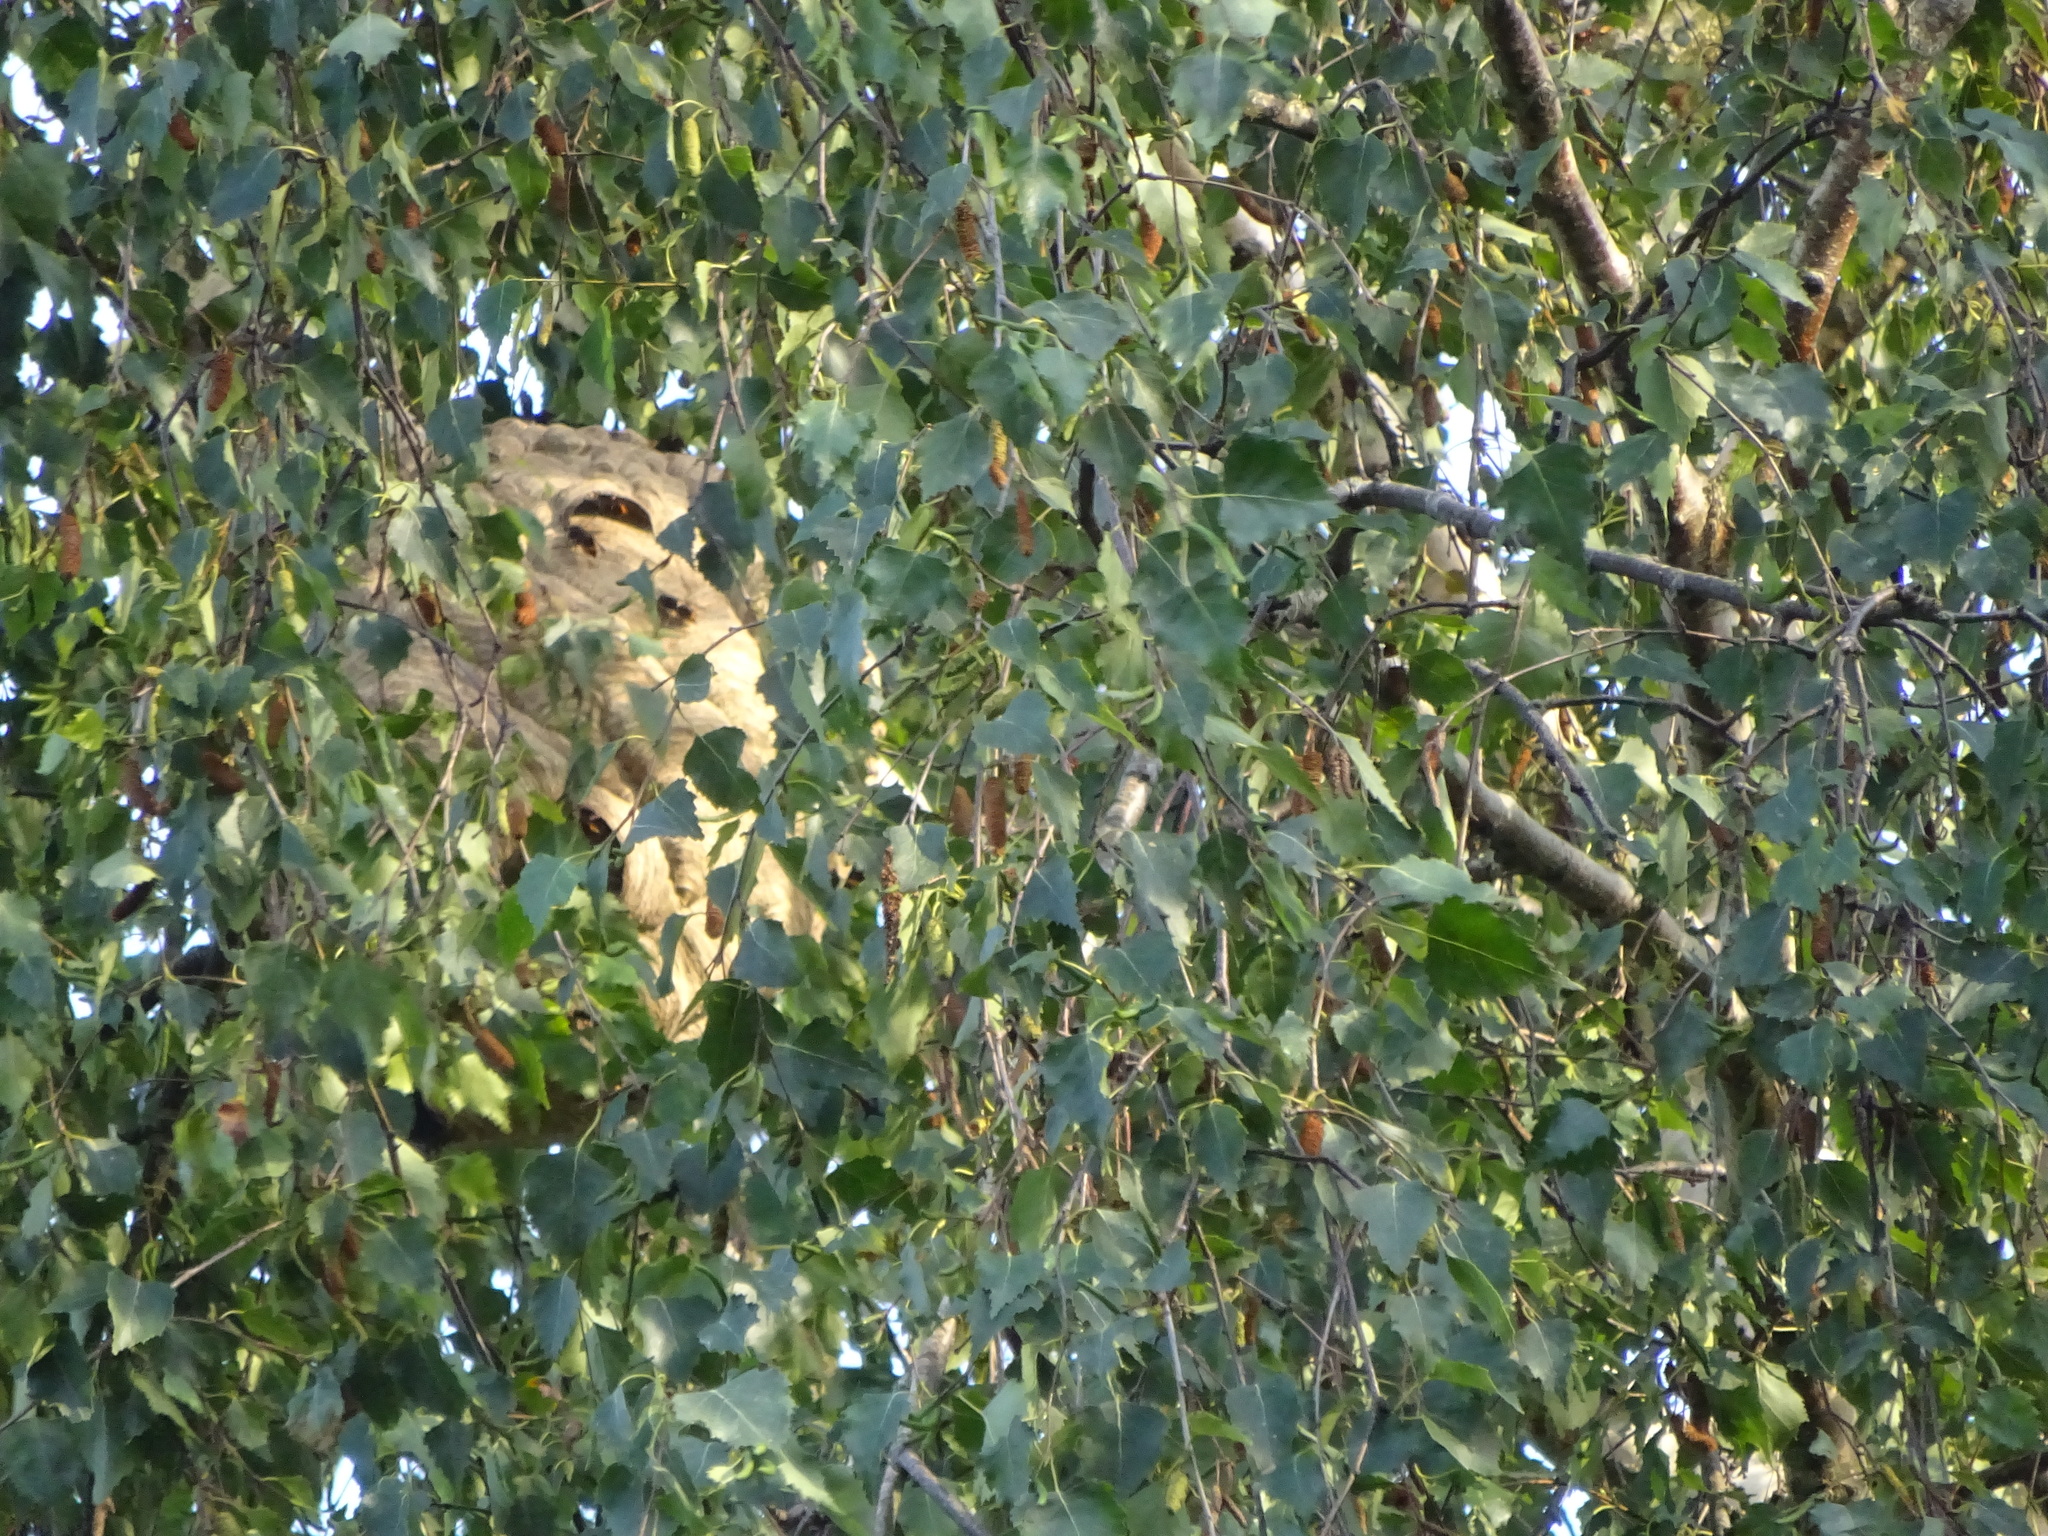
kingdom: Animalia
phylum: Arthropoda
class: Insecta
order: Hymenoptera
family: Vespidae
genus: Vespa
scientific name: Vespa velutina
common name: Asian hornet
